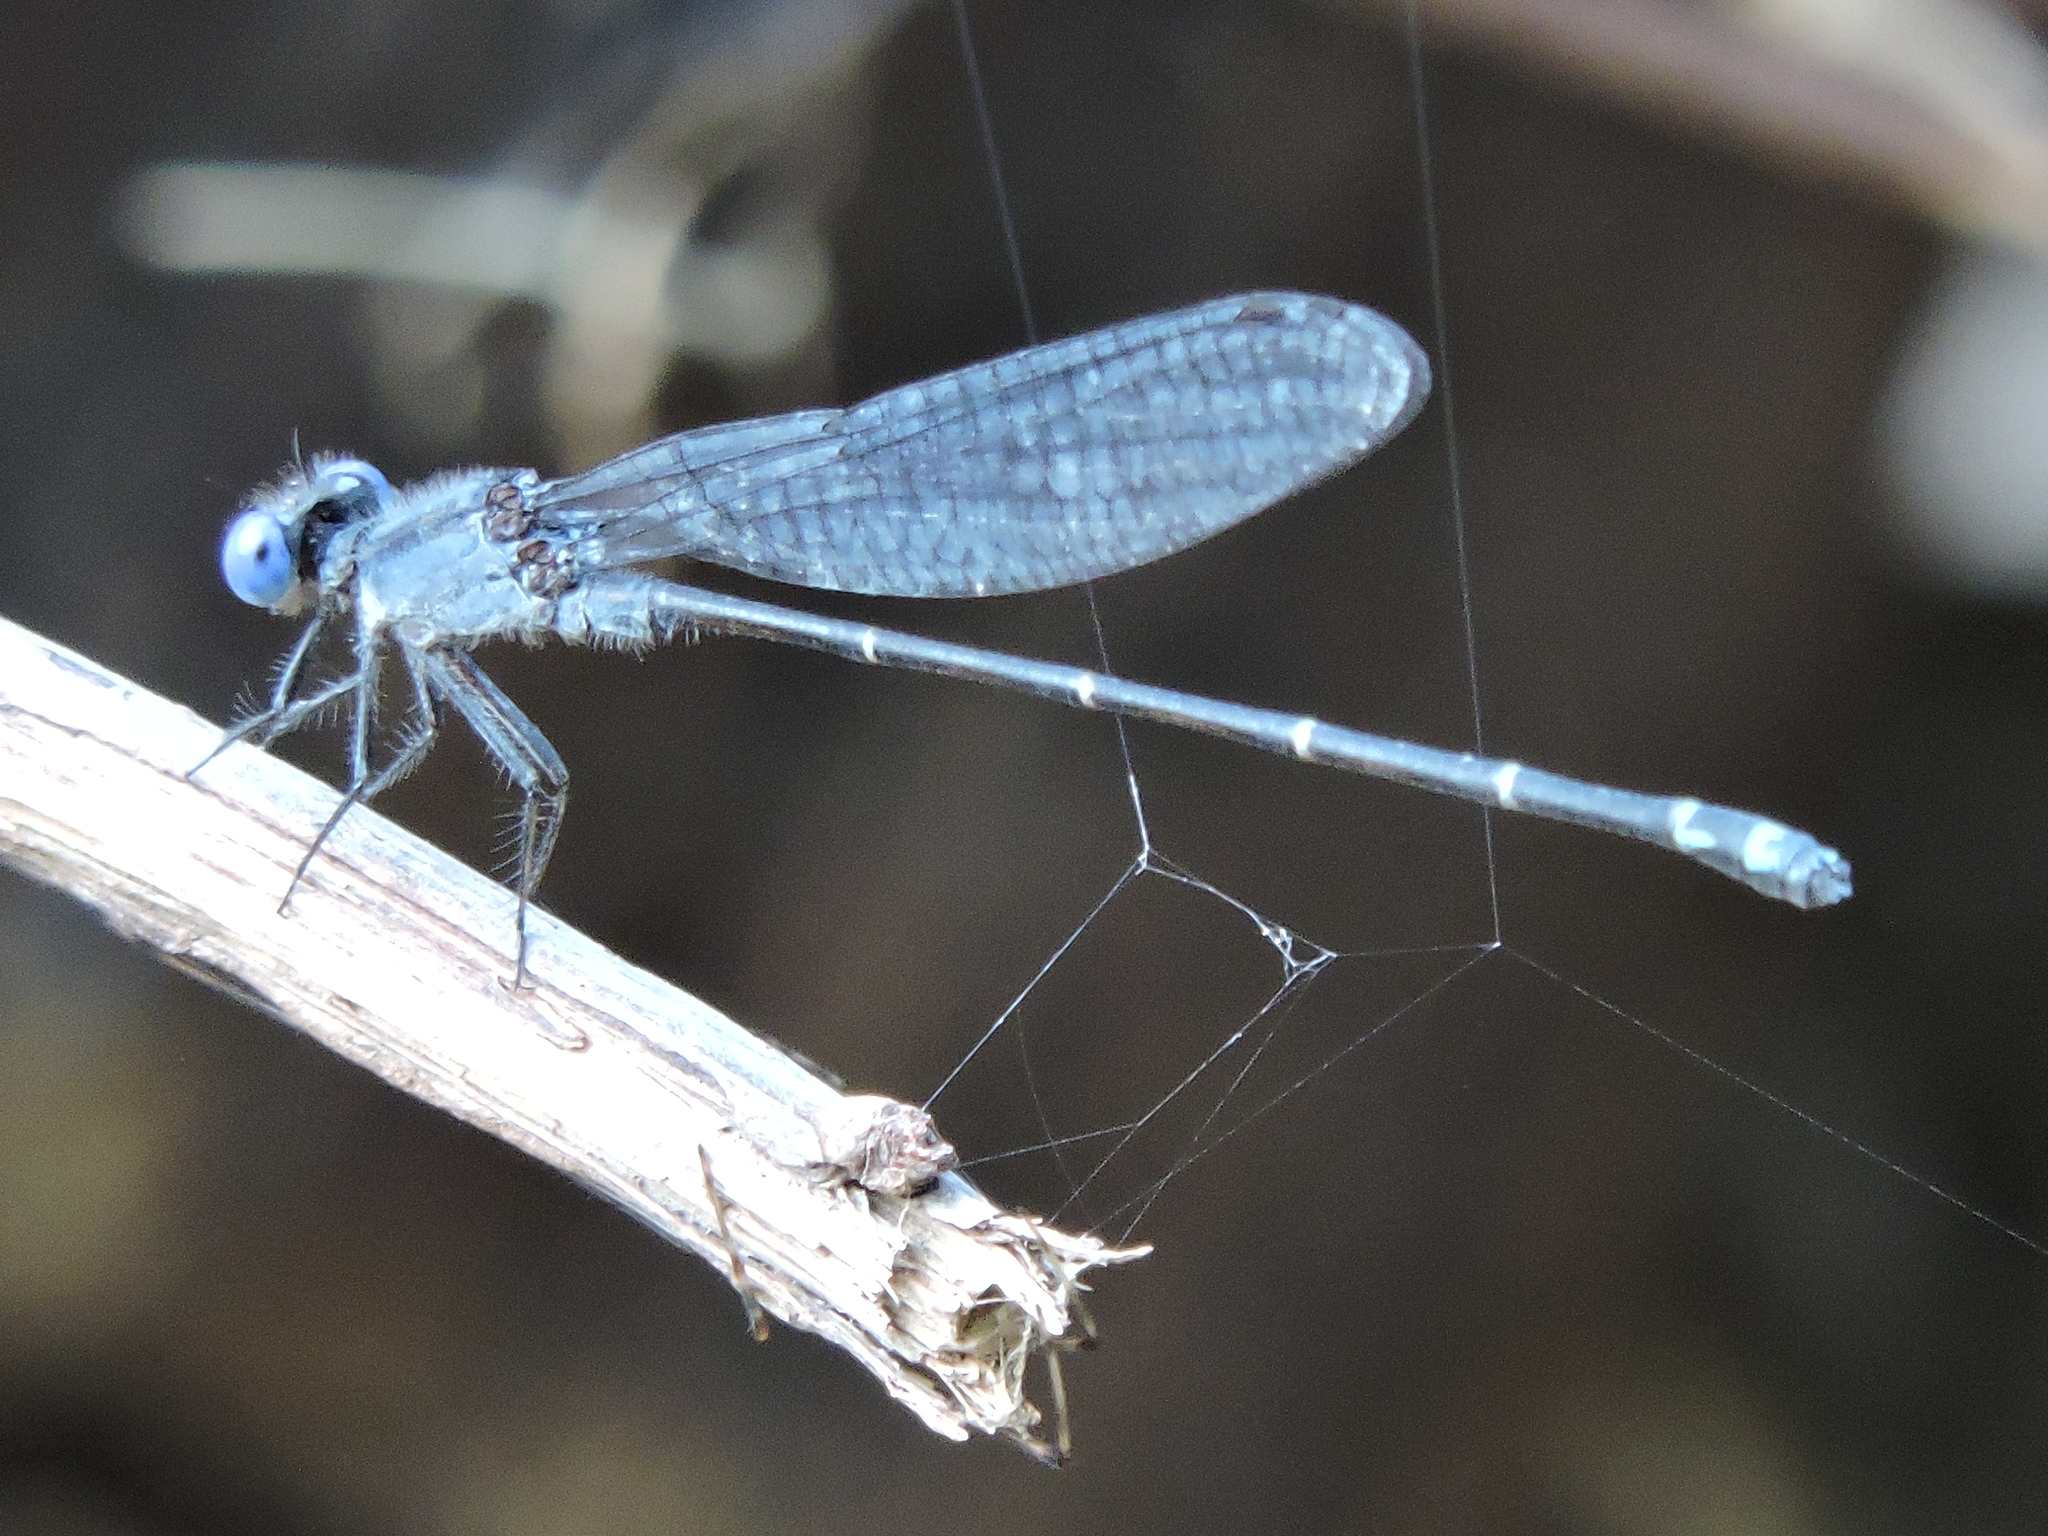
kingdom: Animalia
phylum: Arthropoda
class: Insecta
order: Odonata
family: Coenagrionidae
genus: Argia
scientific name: Argia translata
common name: Dusky dancer
